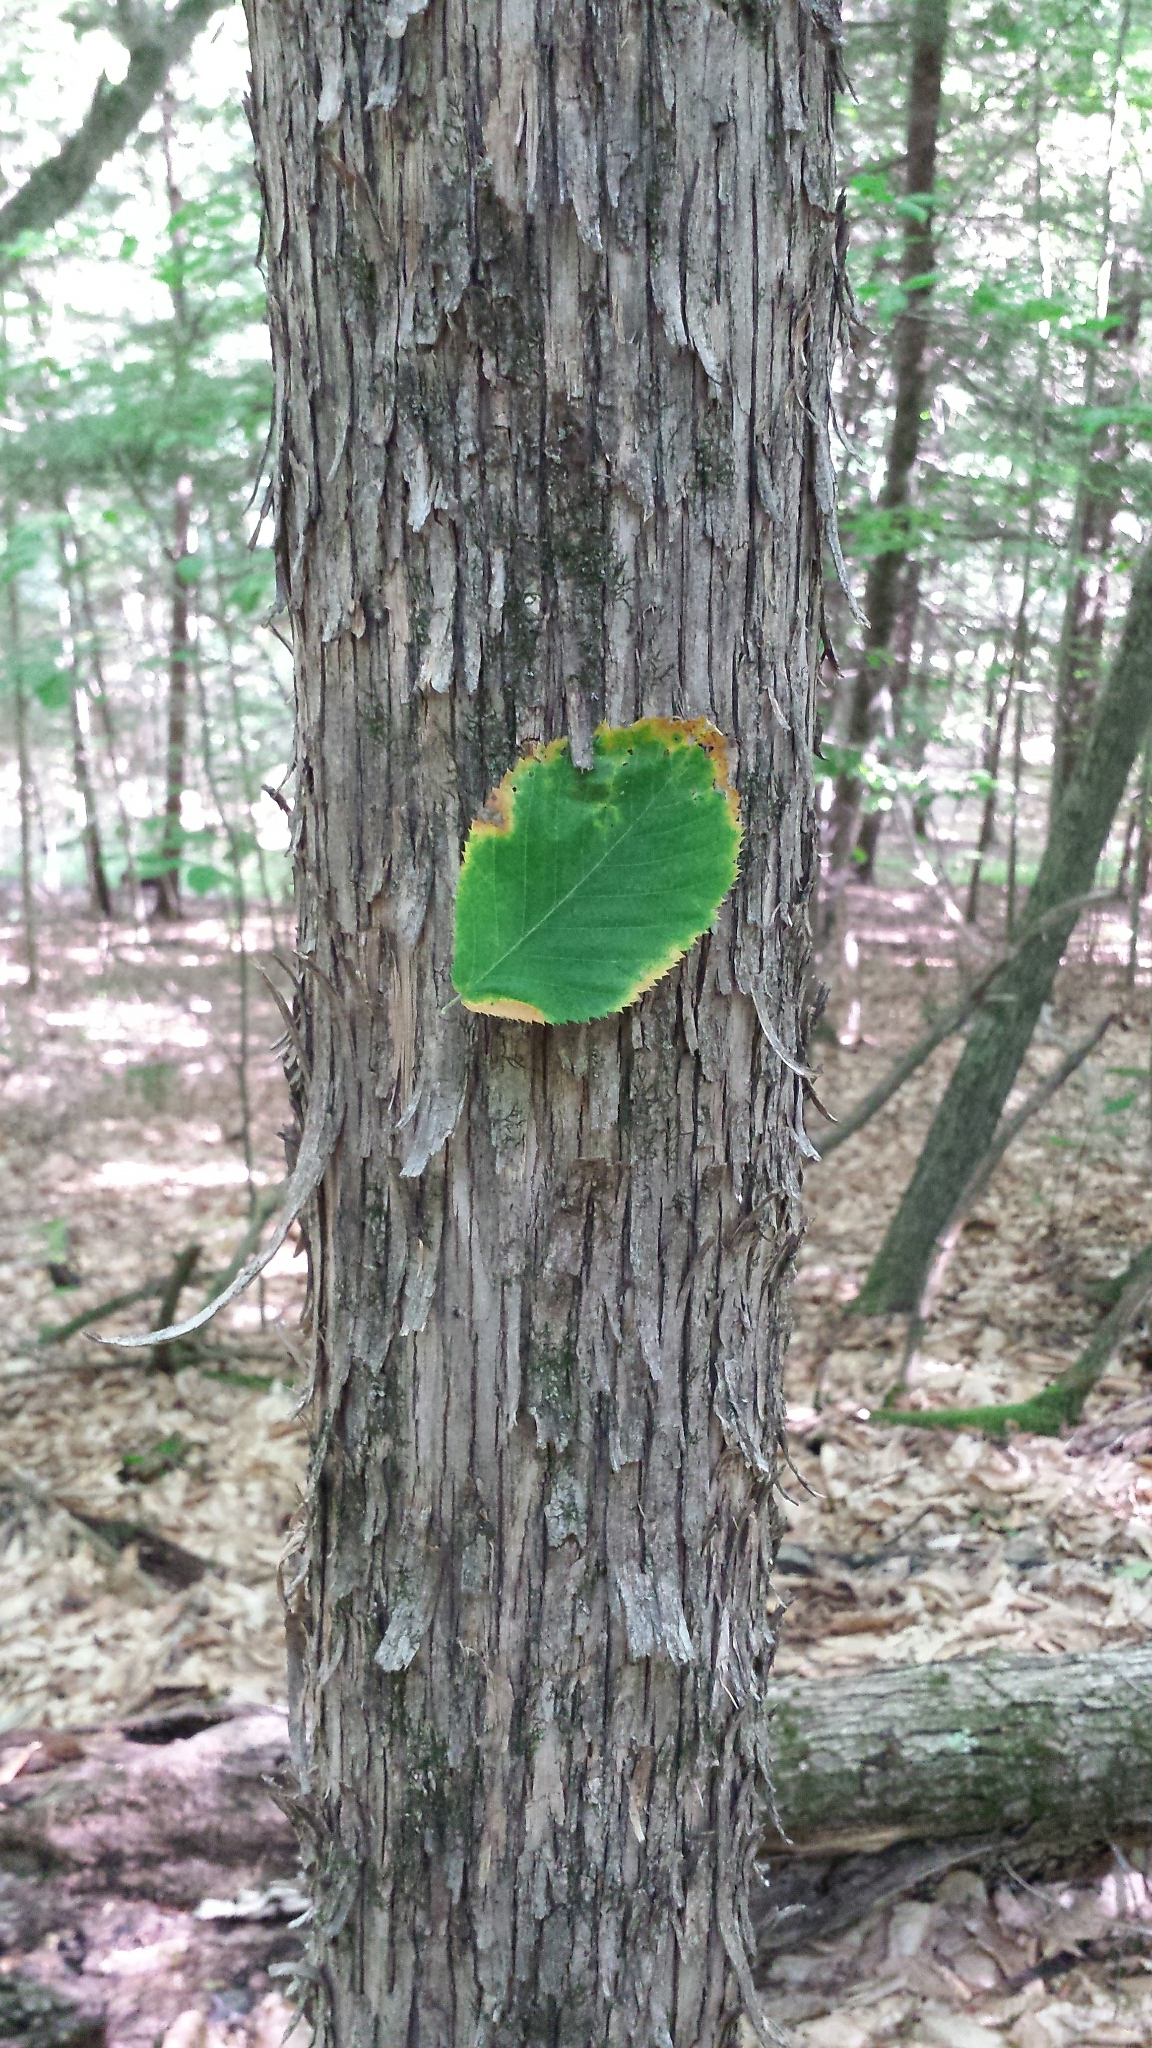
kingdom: Plantae
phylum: Tracheophyta
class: Magnoliopsida
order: Fagales
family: Betulaceae
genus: Ostrya
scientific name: Ostrya virginiana
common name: Ironwood
